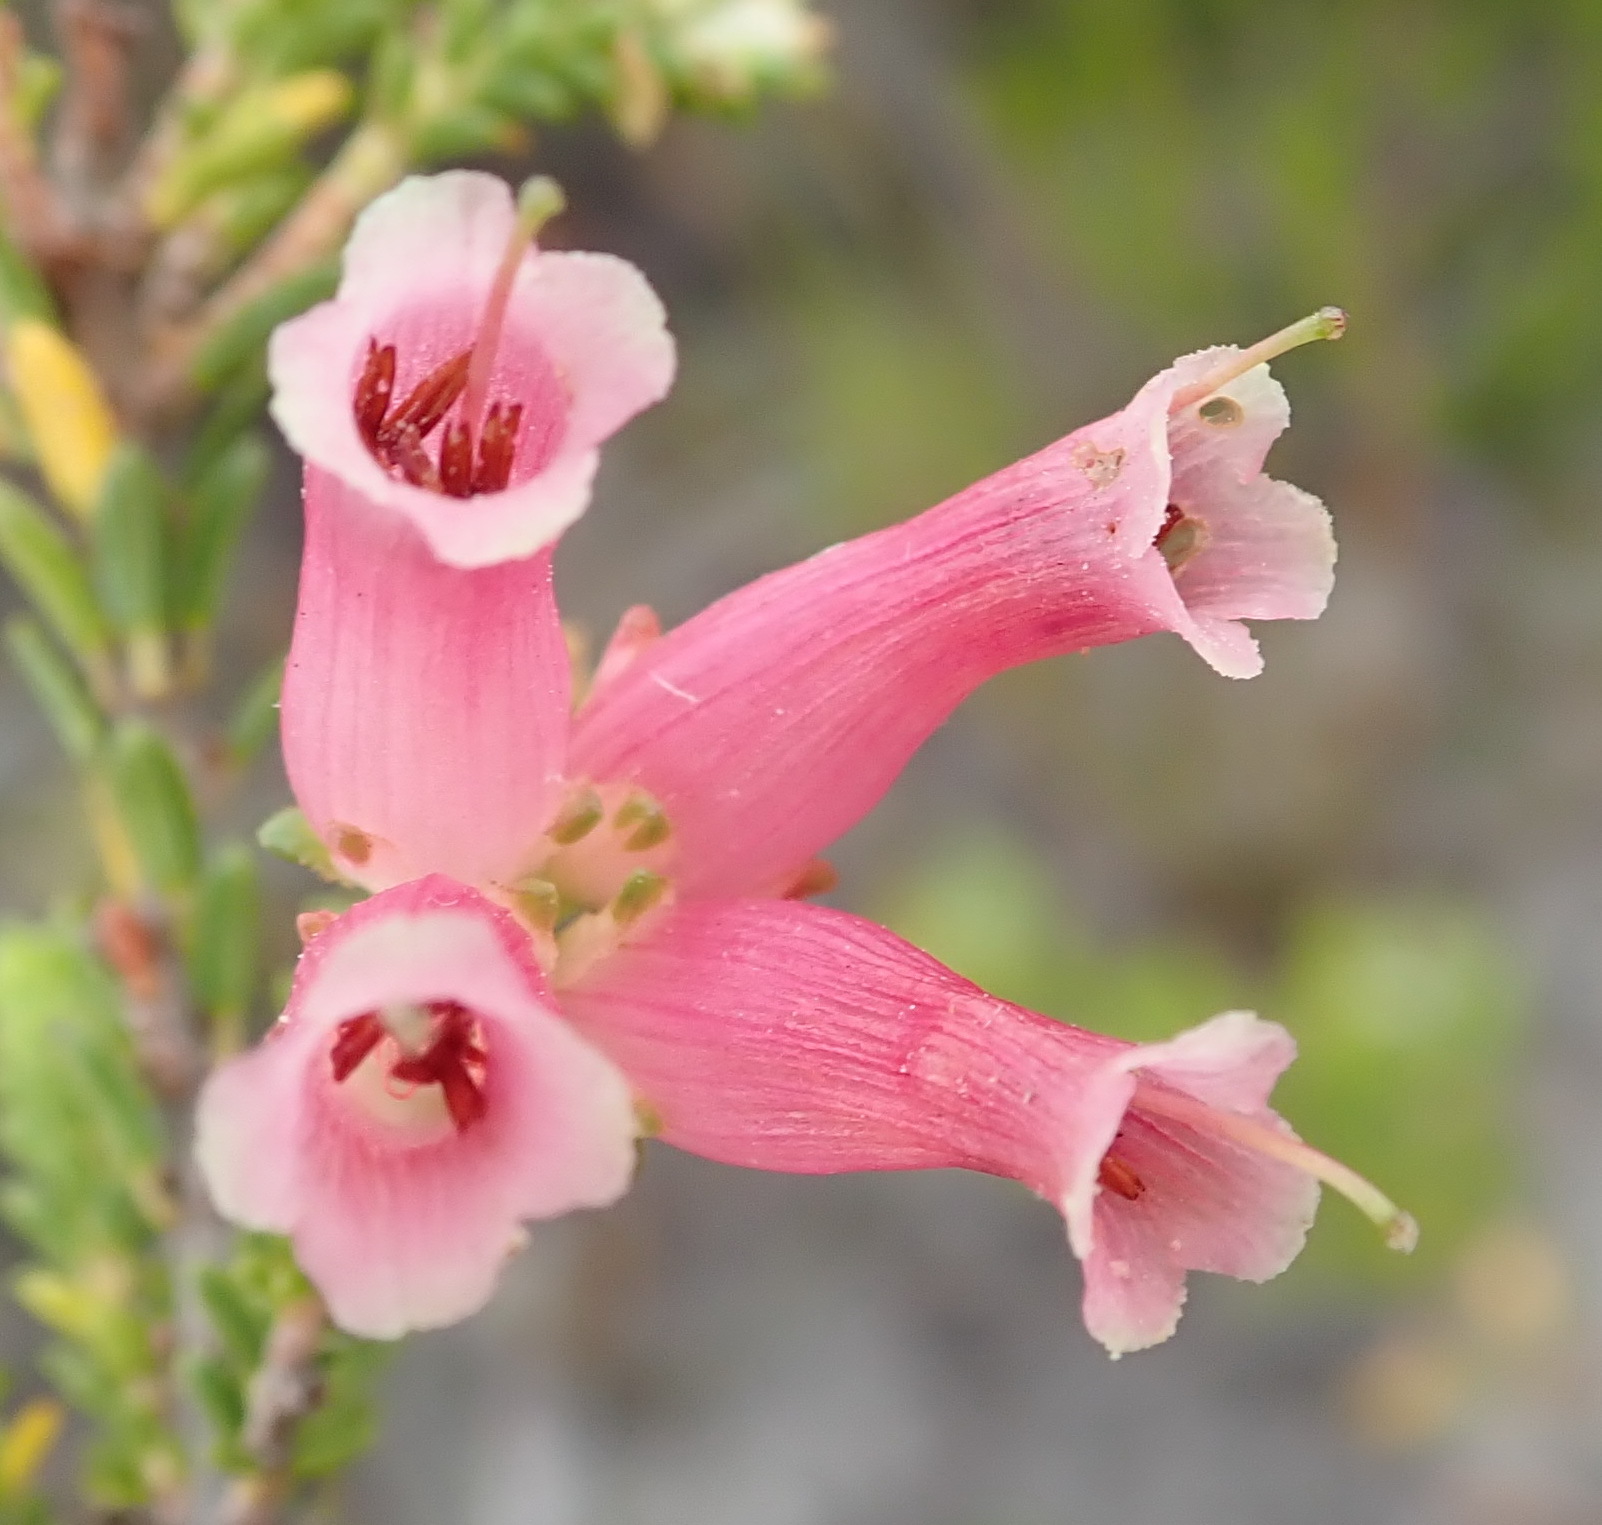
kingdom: Plantae
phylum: Tracheophyta
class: Magnoliopsida
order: Ericales
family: Ericaceae
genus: Erica
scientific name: Erica versicolor
